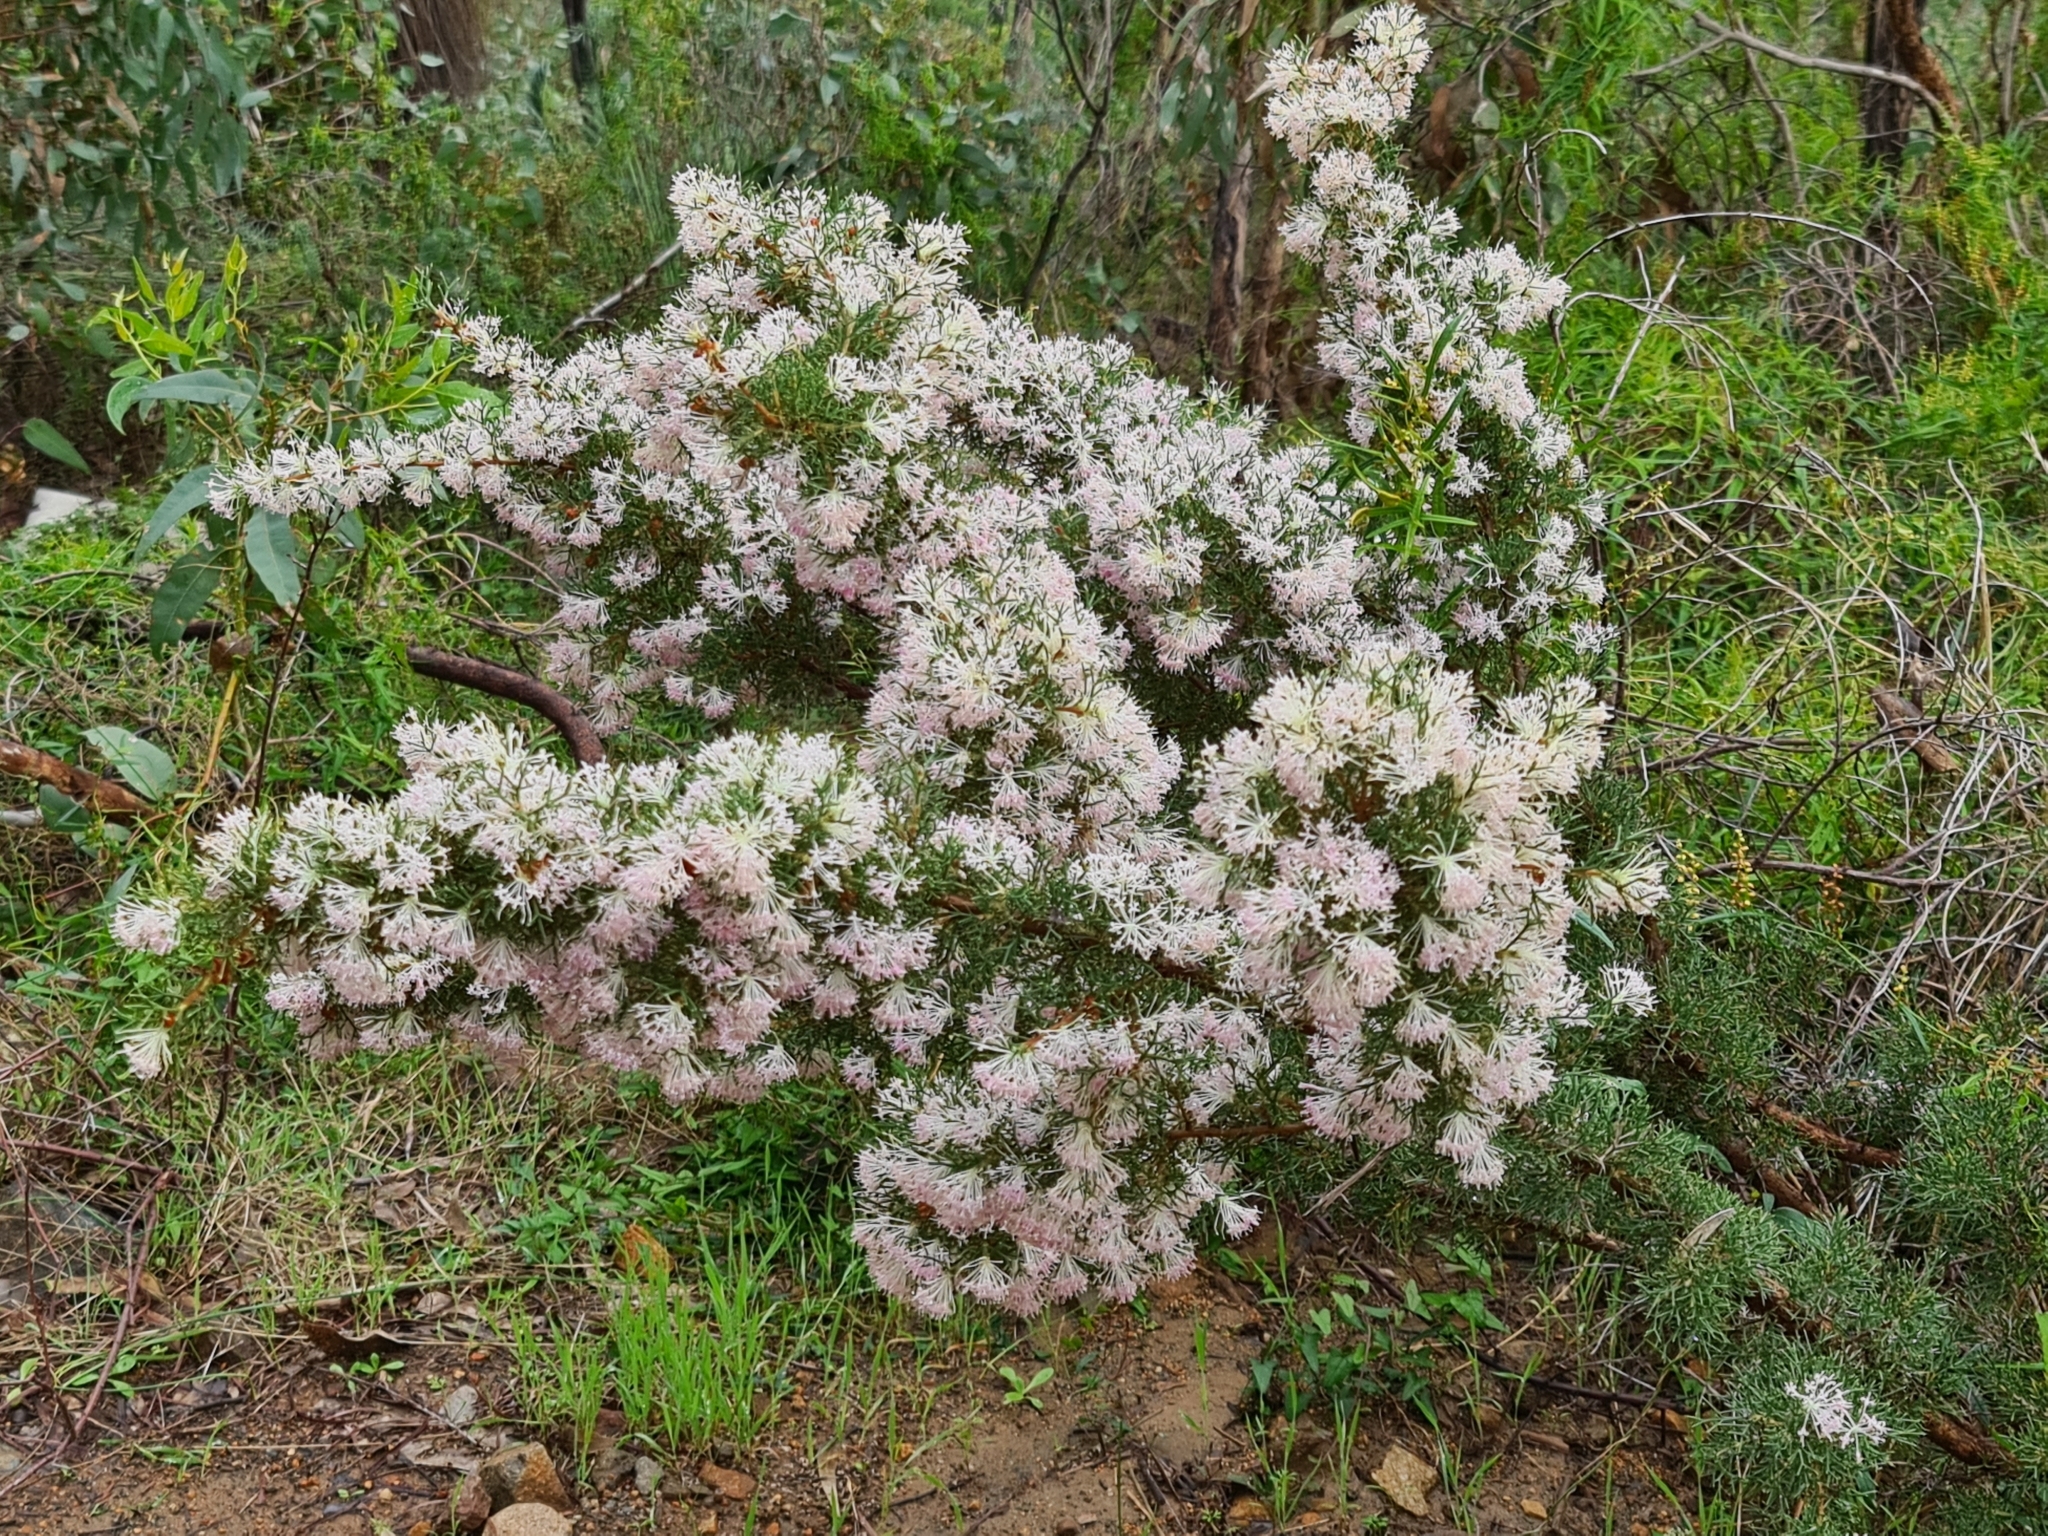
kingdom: Plantae
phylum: Tracheophyta
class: Magnoliopsida
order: Proteales
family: Proteaceae
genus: Hakea
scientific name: Hakea lissocarpha
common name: Honey bush
